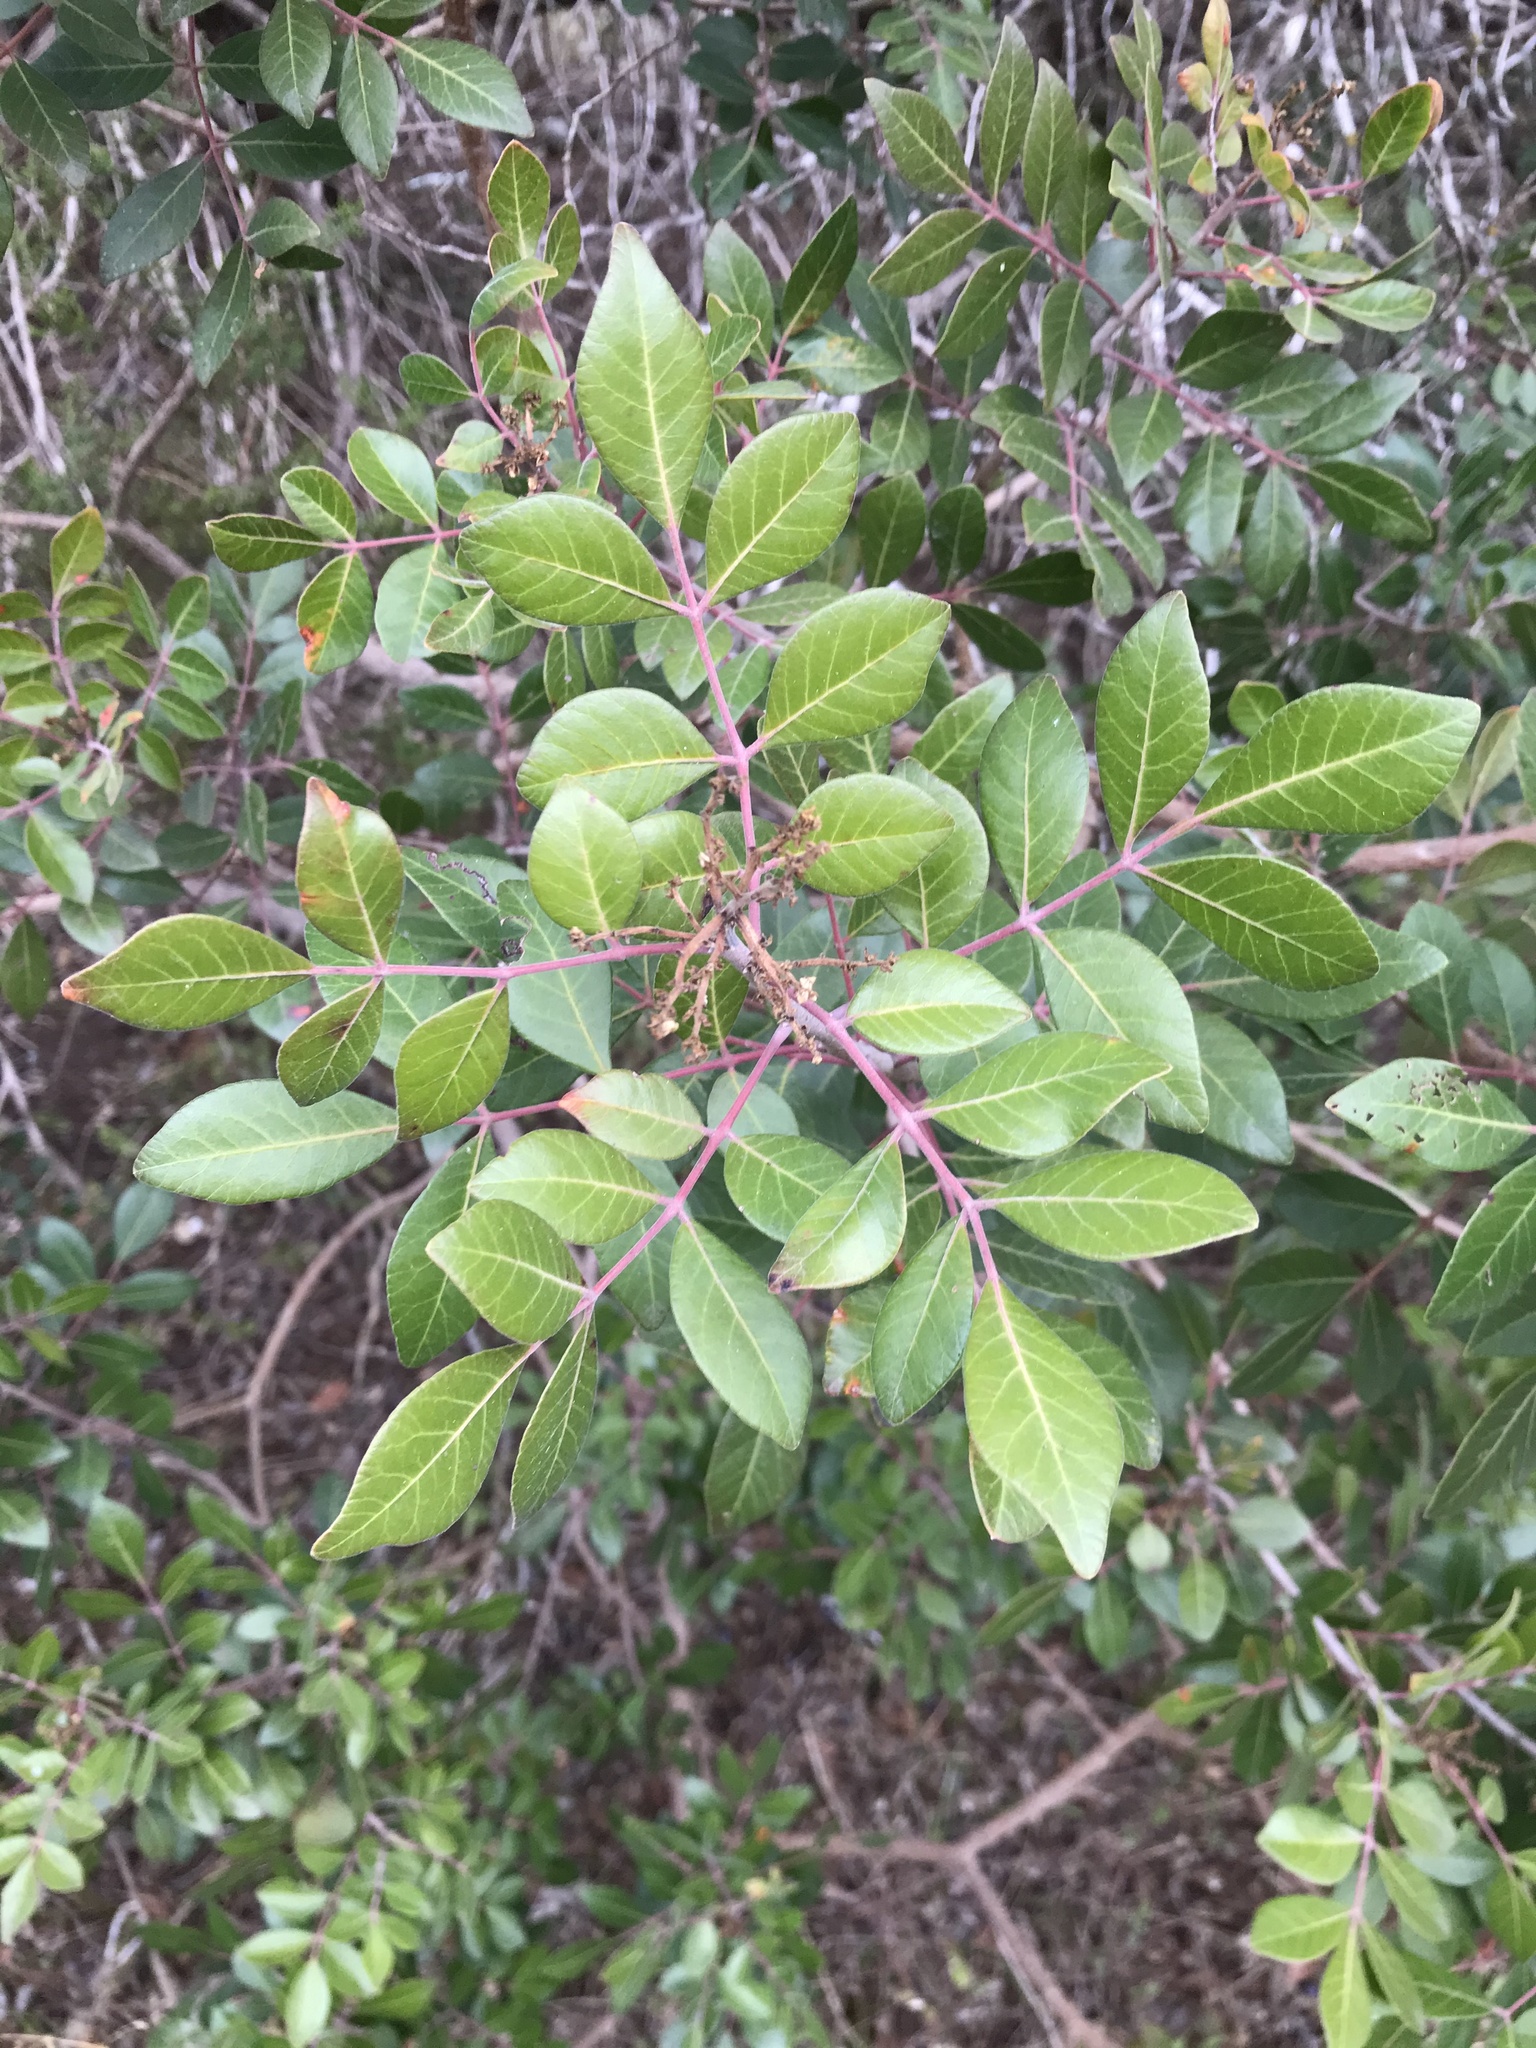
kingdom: Plantae
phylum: Tracheophyta
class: Magnoliopsida
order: Sapindales
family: Anacardiaceae
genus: Rhus
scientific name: Rhus virens
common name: Evergreen sumac
